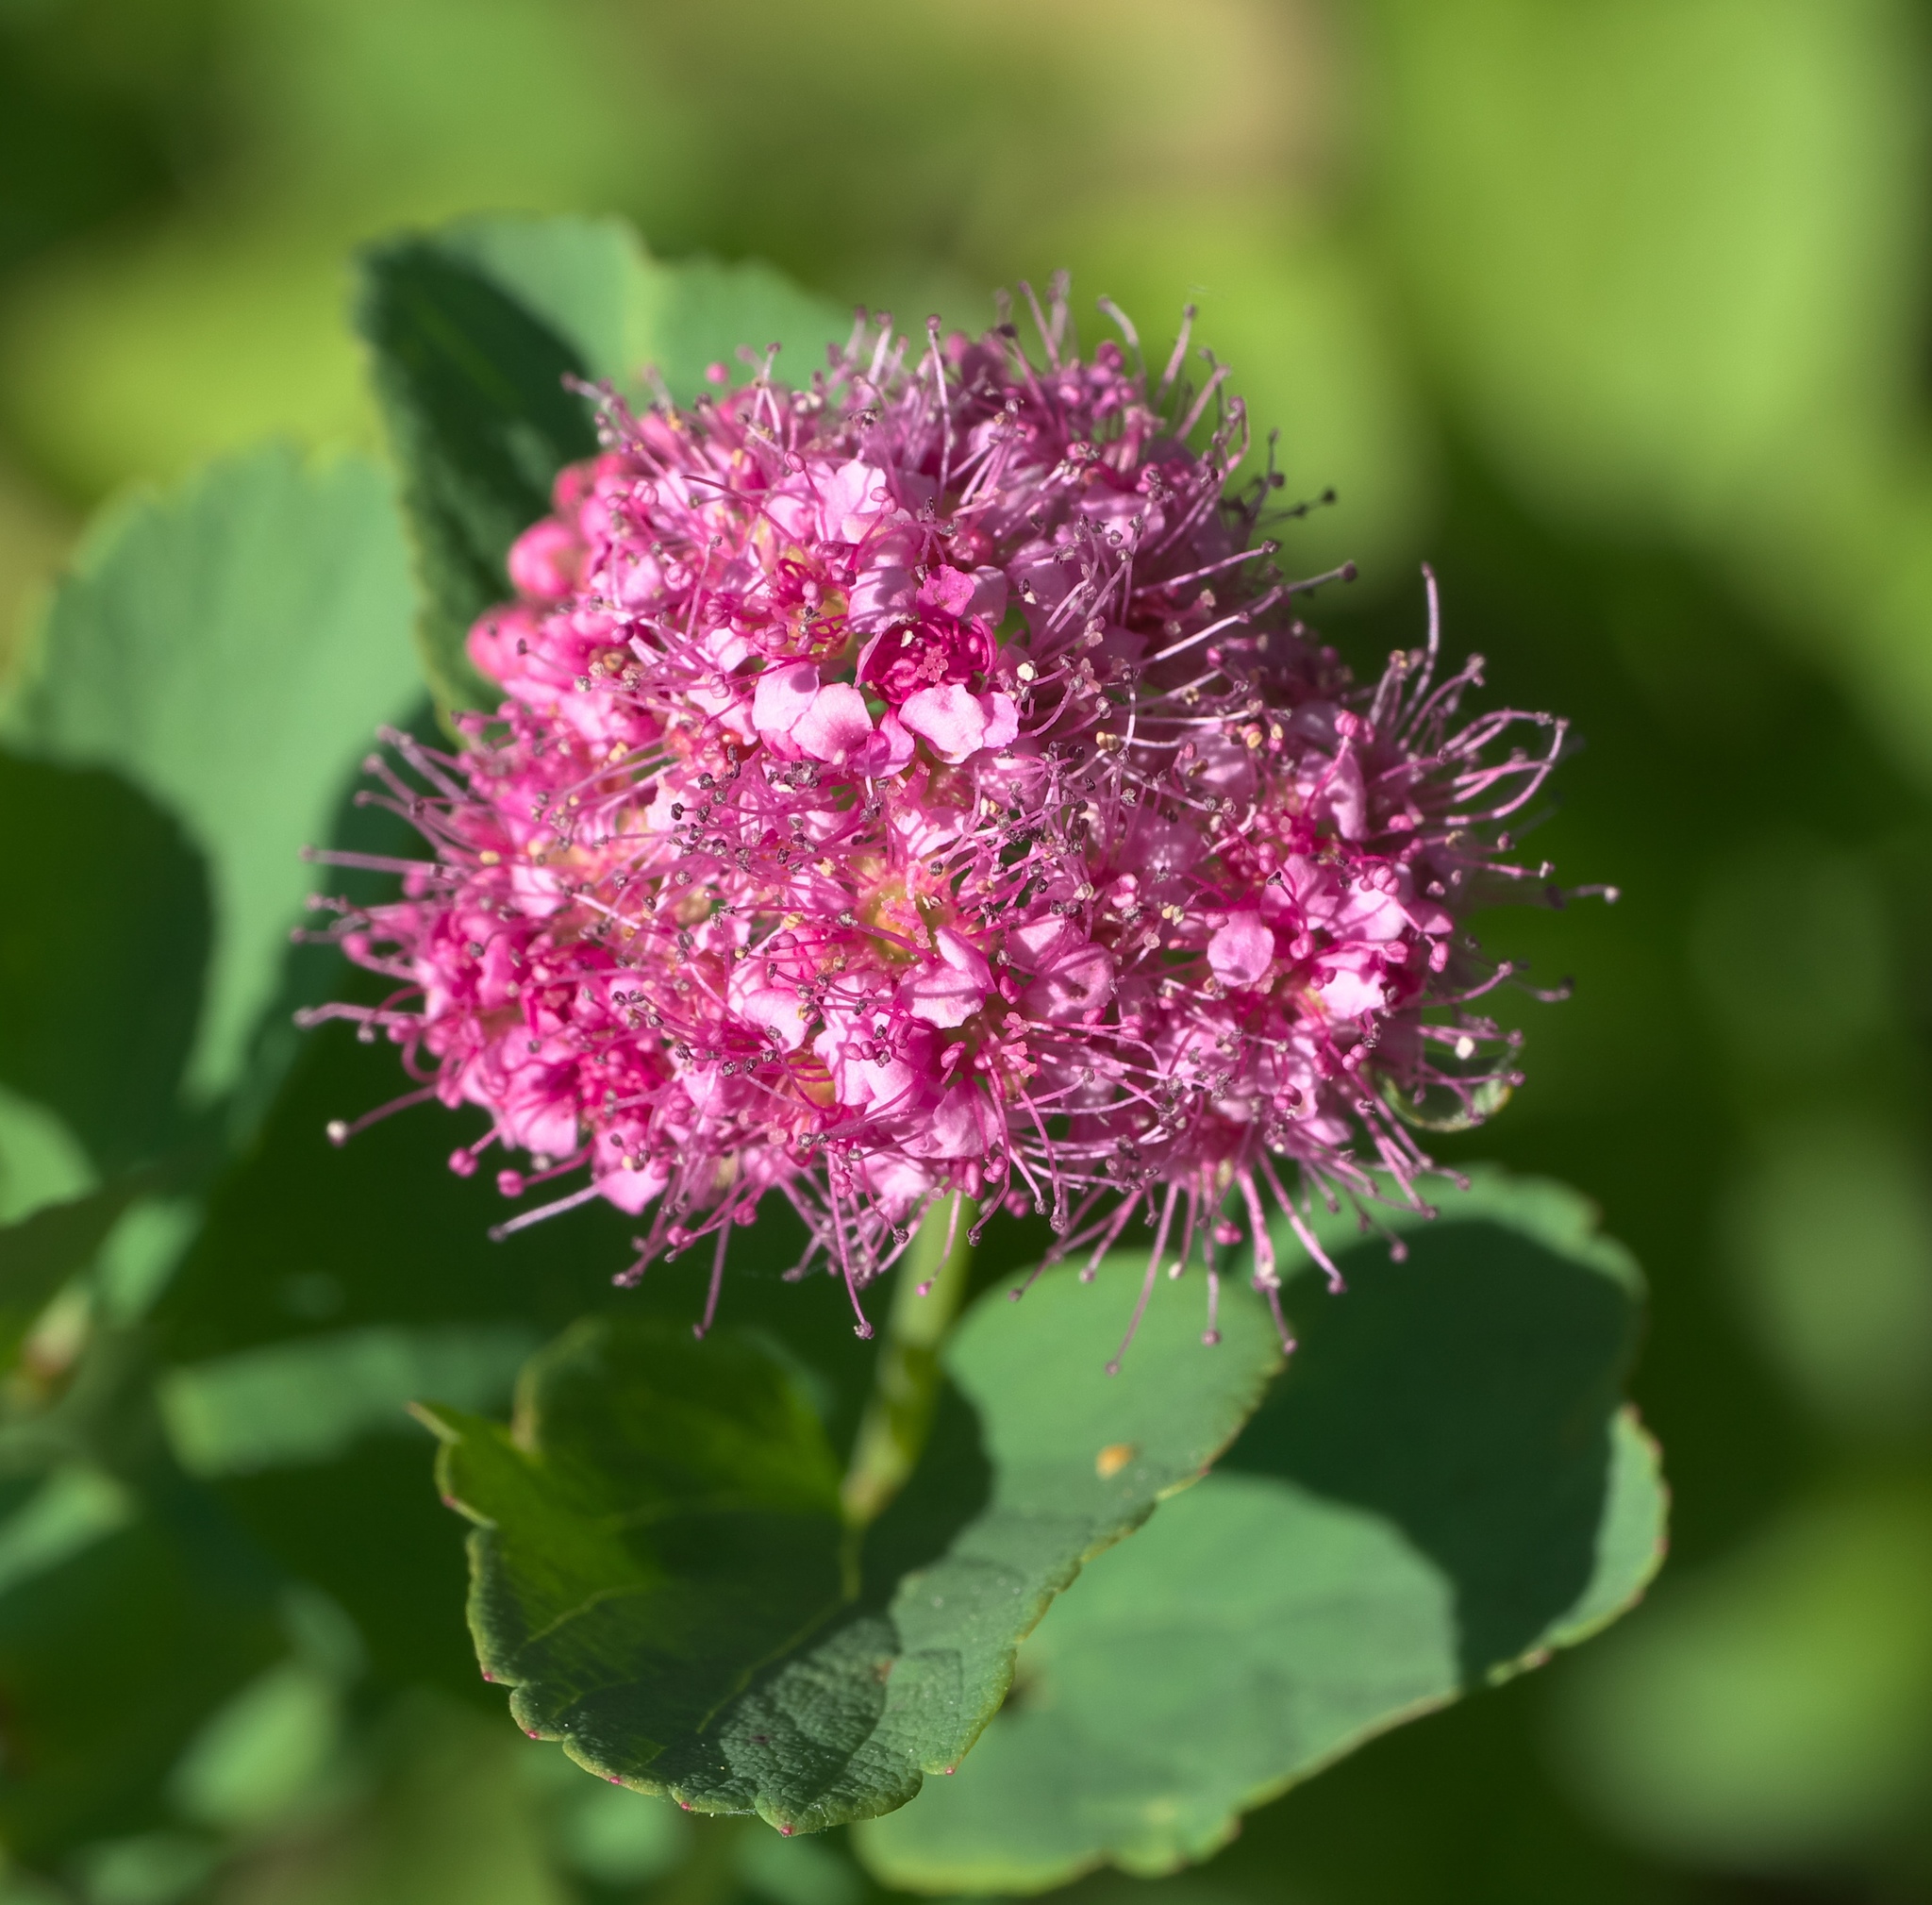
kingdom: Plantae
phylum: Tracheophyta
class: Magnoliopsida
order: Rosales
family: Rosaceae
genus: Spiraea
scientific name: Spiraea splendens
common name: Subalpine meadowsweet
